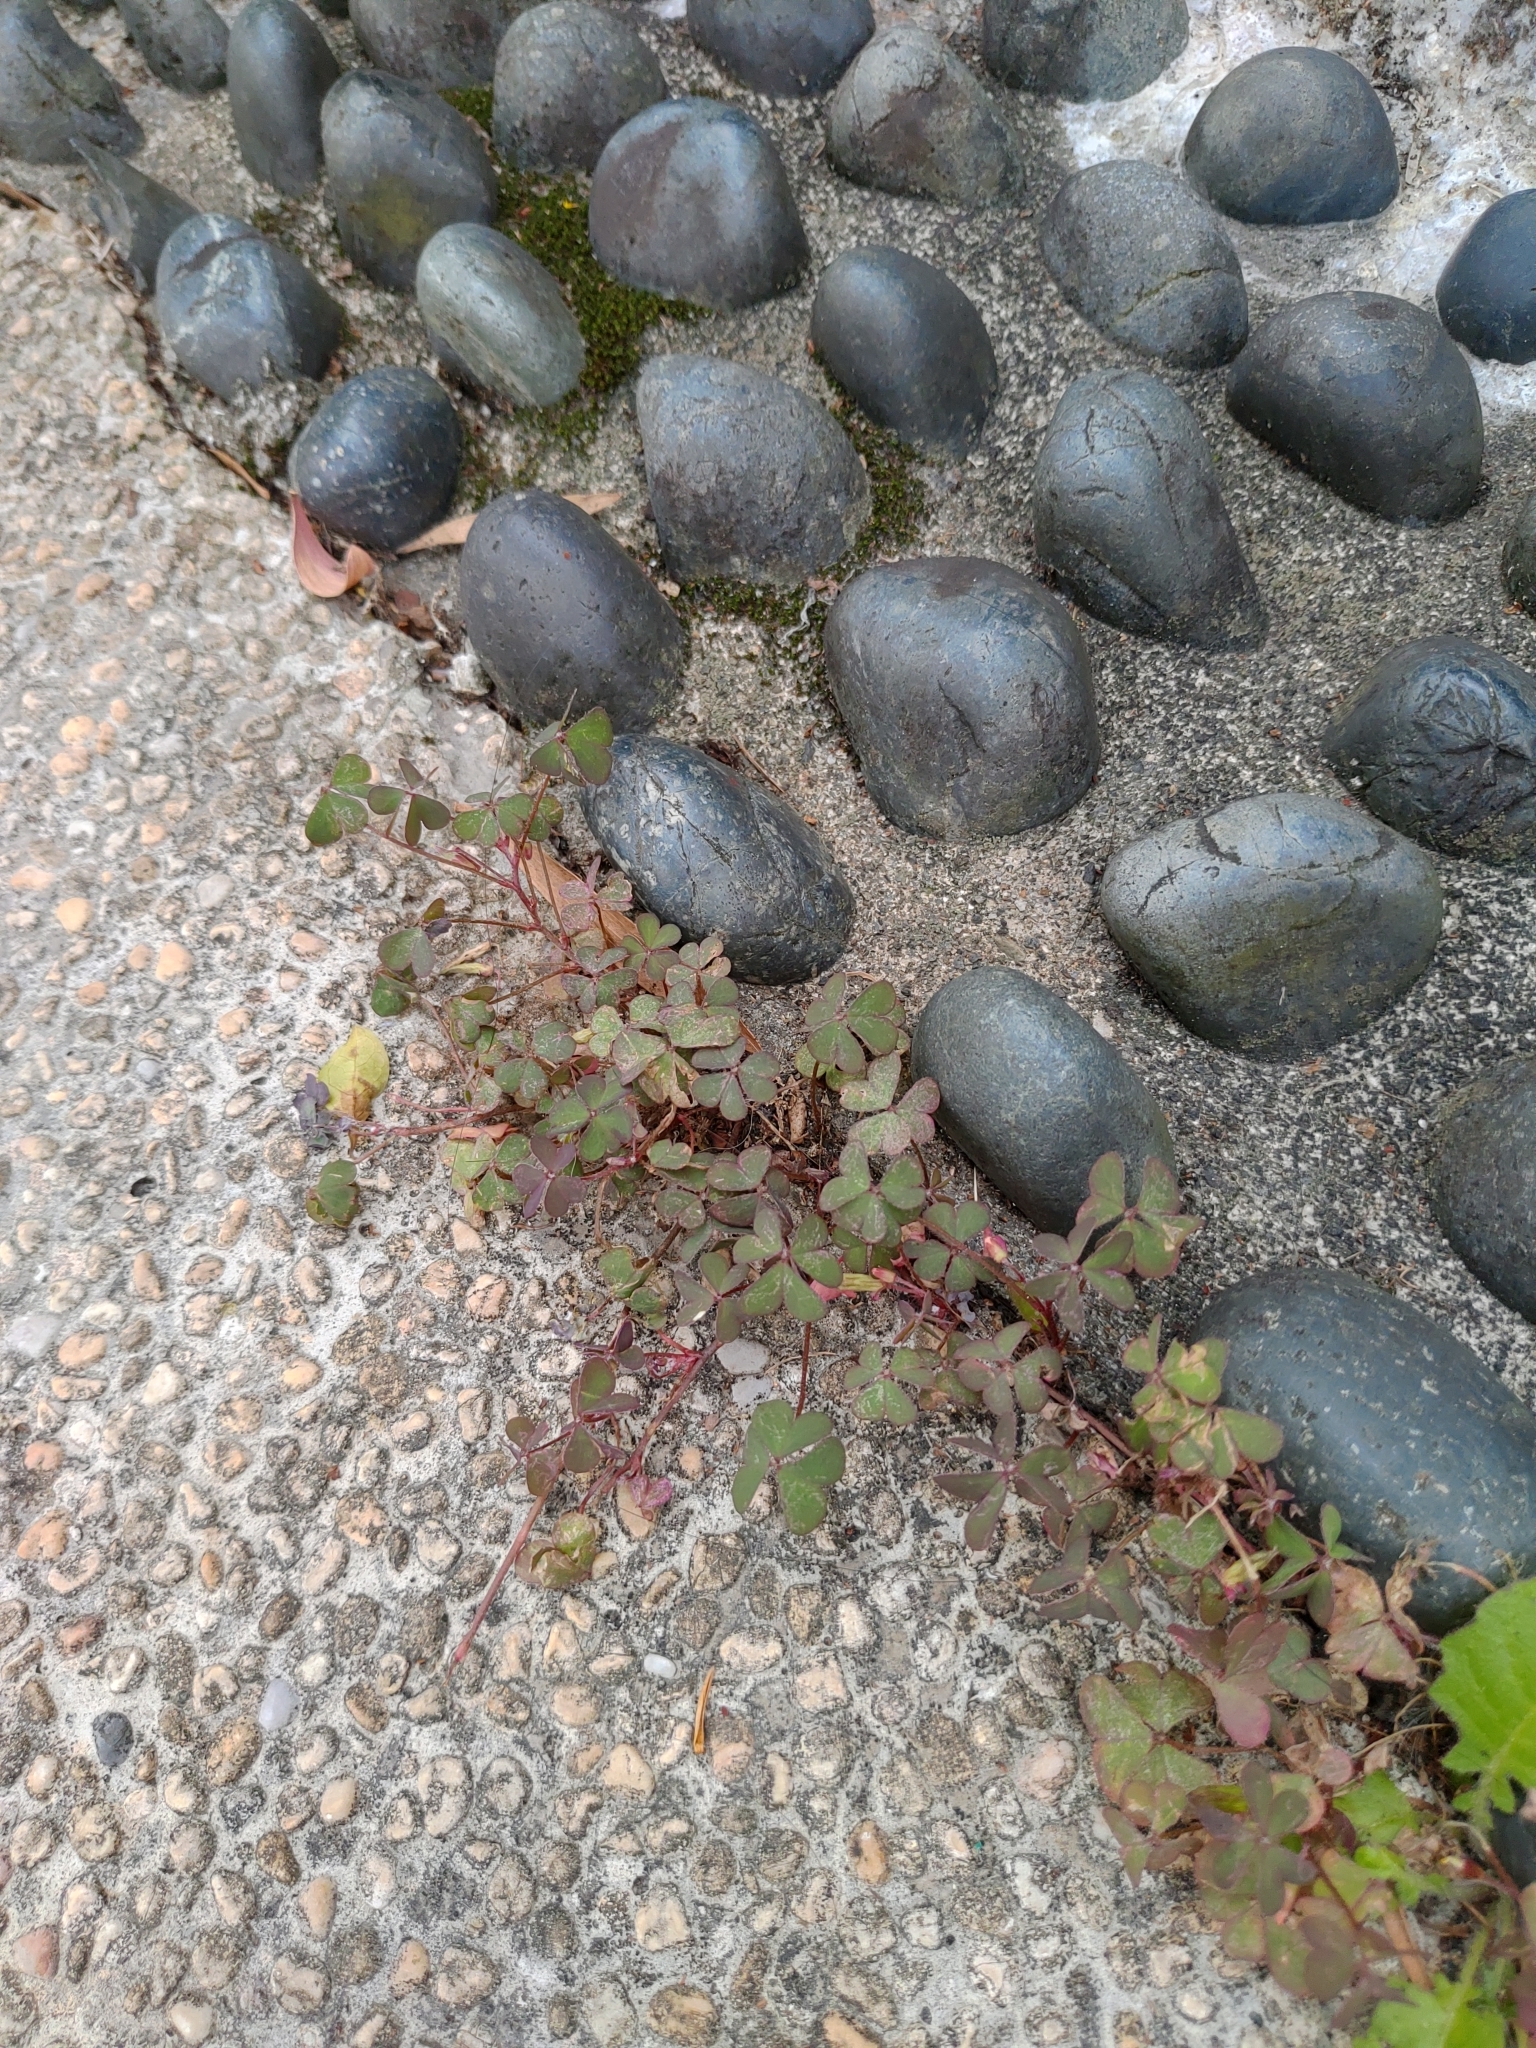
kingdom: Plantae
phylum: Tracheophyta
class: Magnoliopsida
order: Oxalidales
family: Oxalidaceae
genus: Oxalis
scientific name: Oxalis corniculata
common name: Procumbent yellow-sorrel
